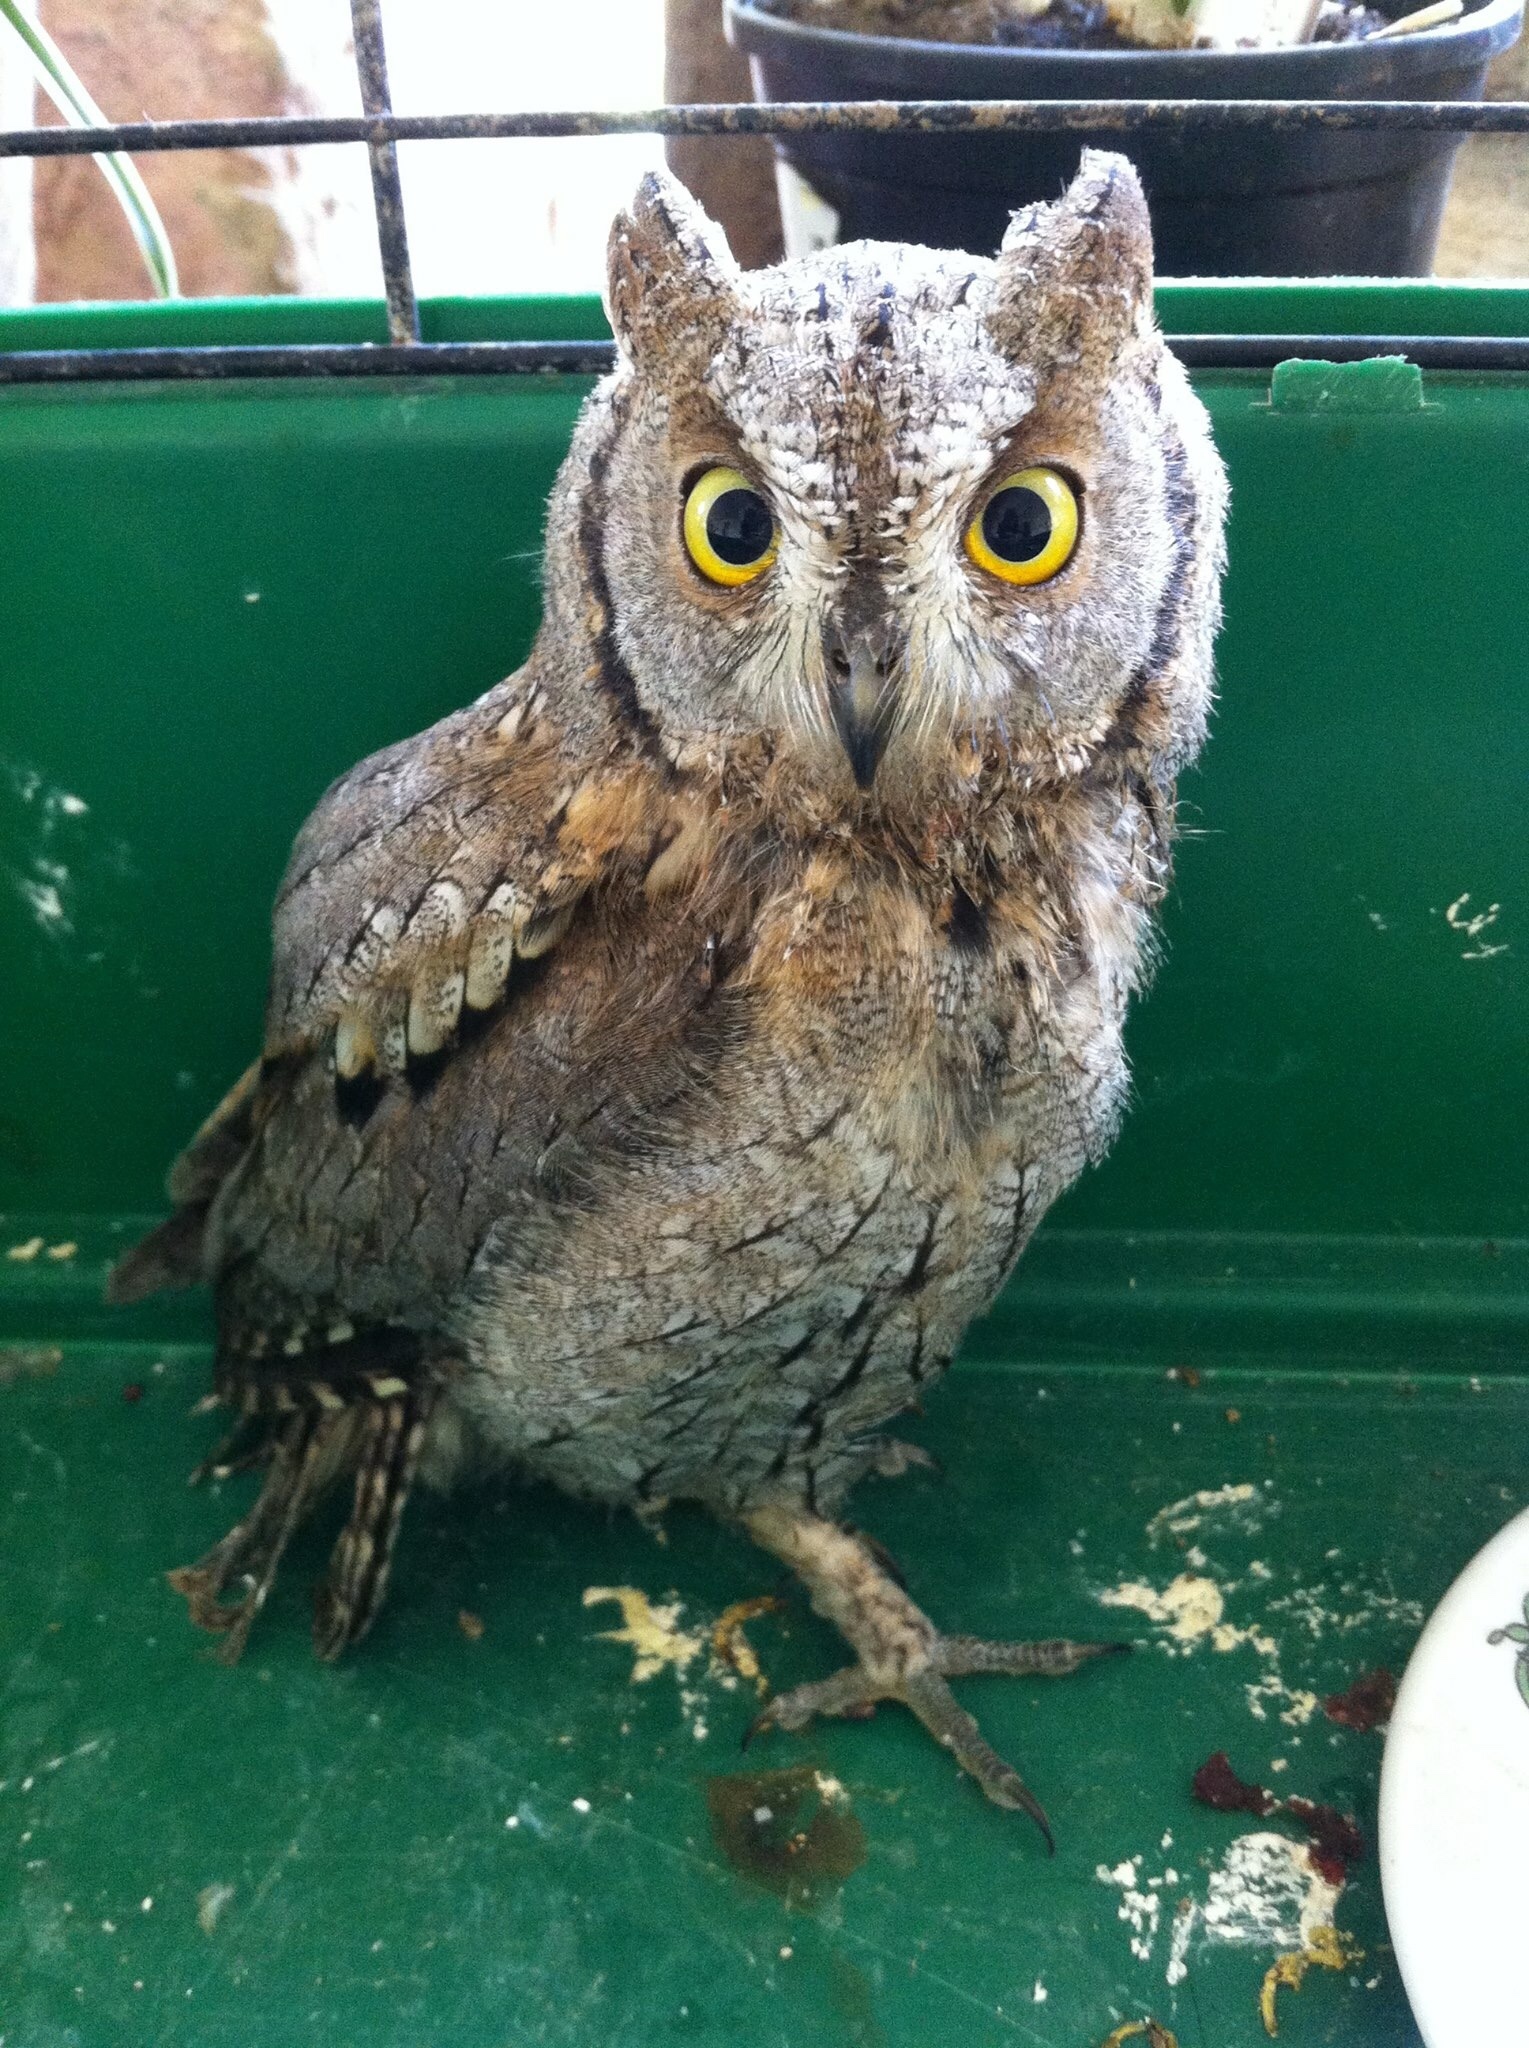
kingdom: Animalia
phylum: Chordata
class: Aves
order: Strigiformes
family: Strigidae
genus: Otus
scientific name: Otus scops
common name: Eurasian scops owl
